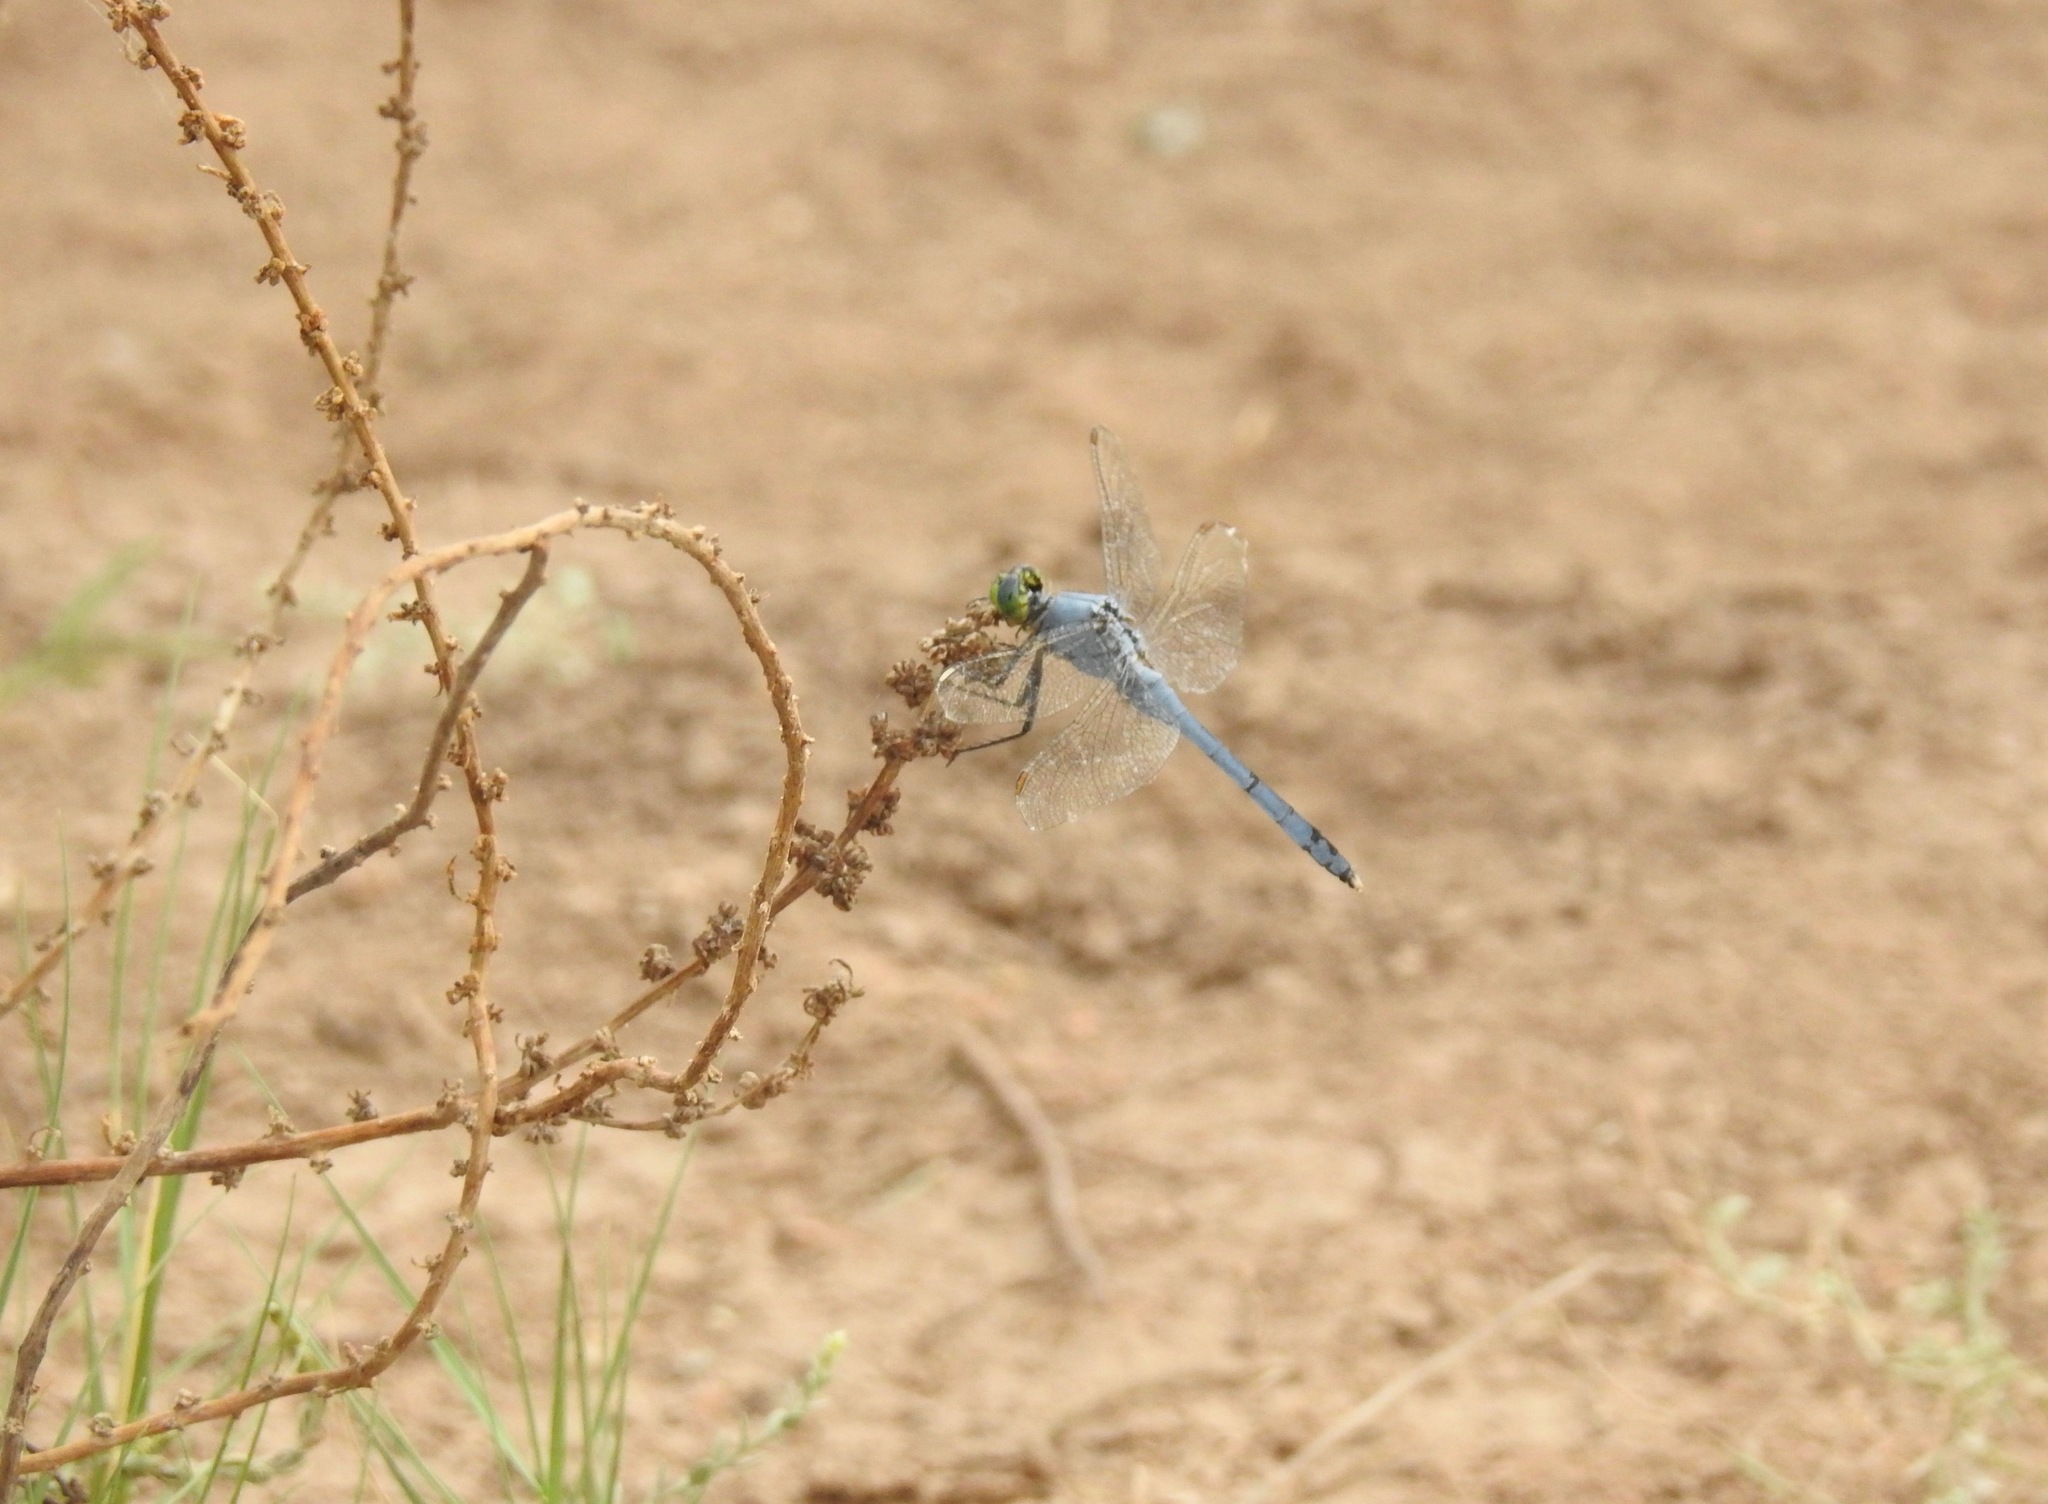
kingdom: Animalia
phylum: Arthropoda
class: Insecta
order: Odonata
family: Libellulidae
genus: Erythemis
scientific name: Erythemis simplicicollis
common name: Eastern pondhawk
